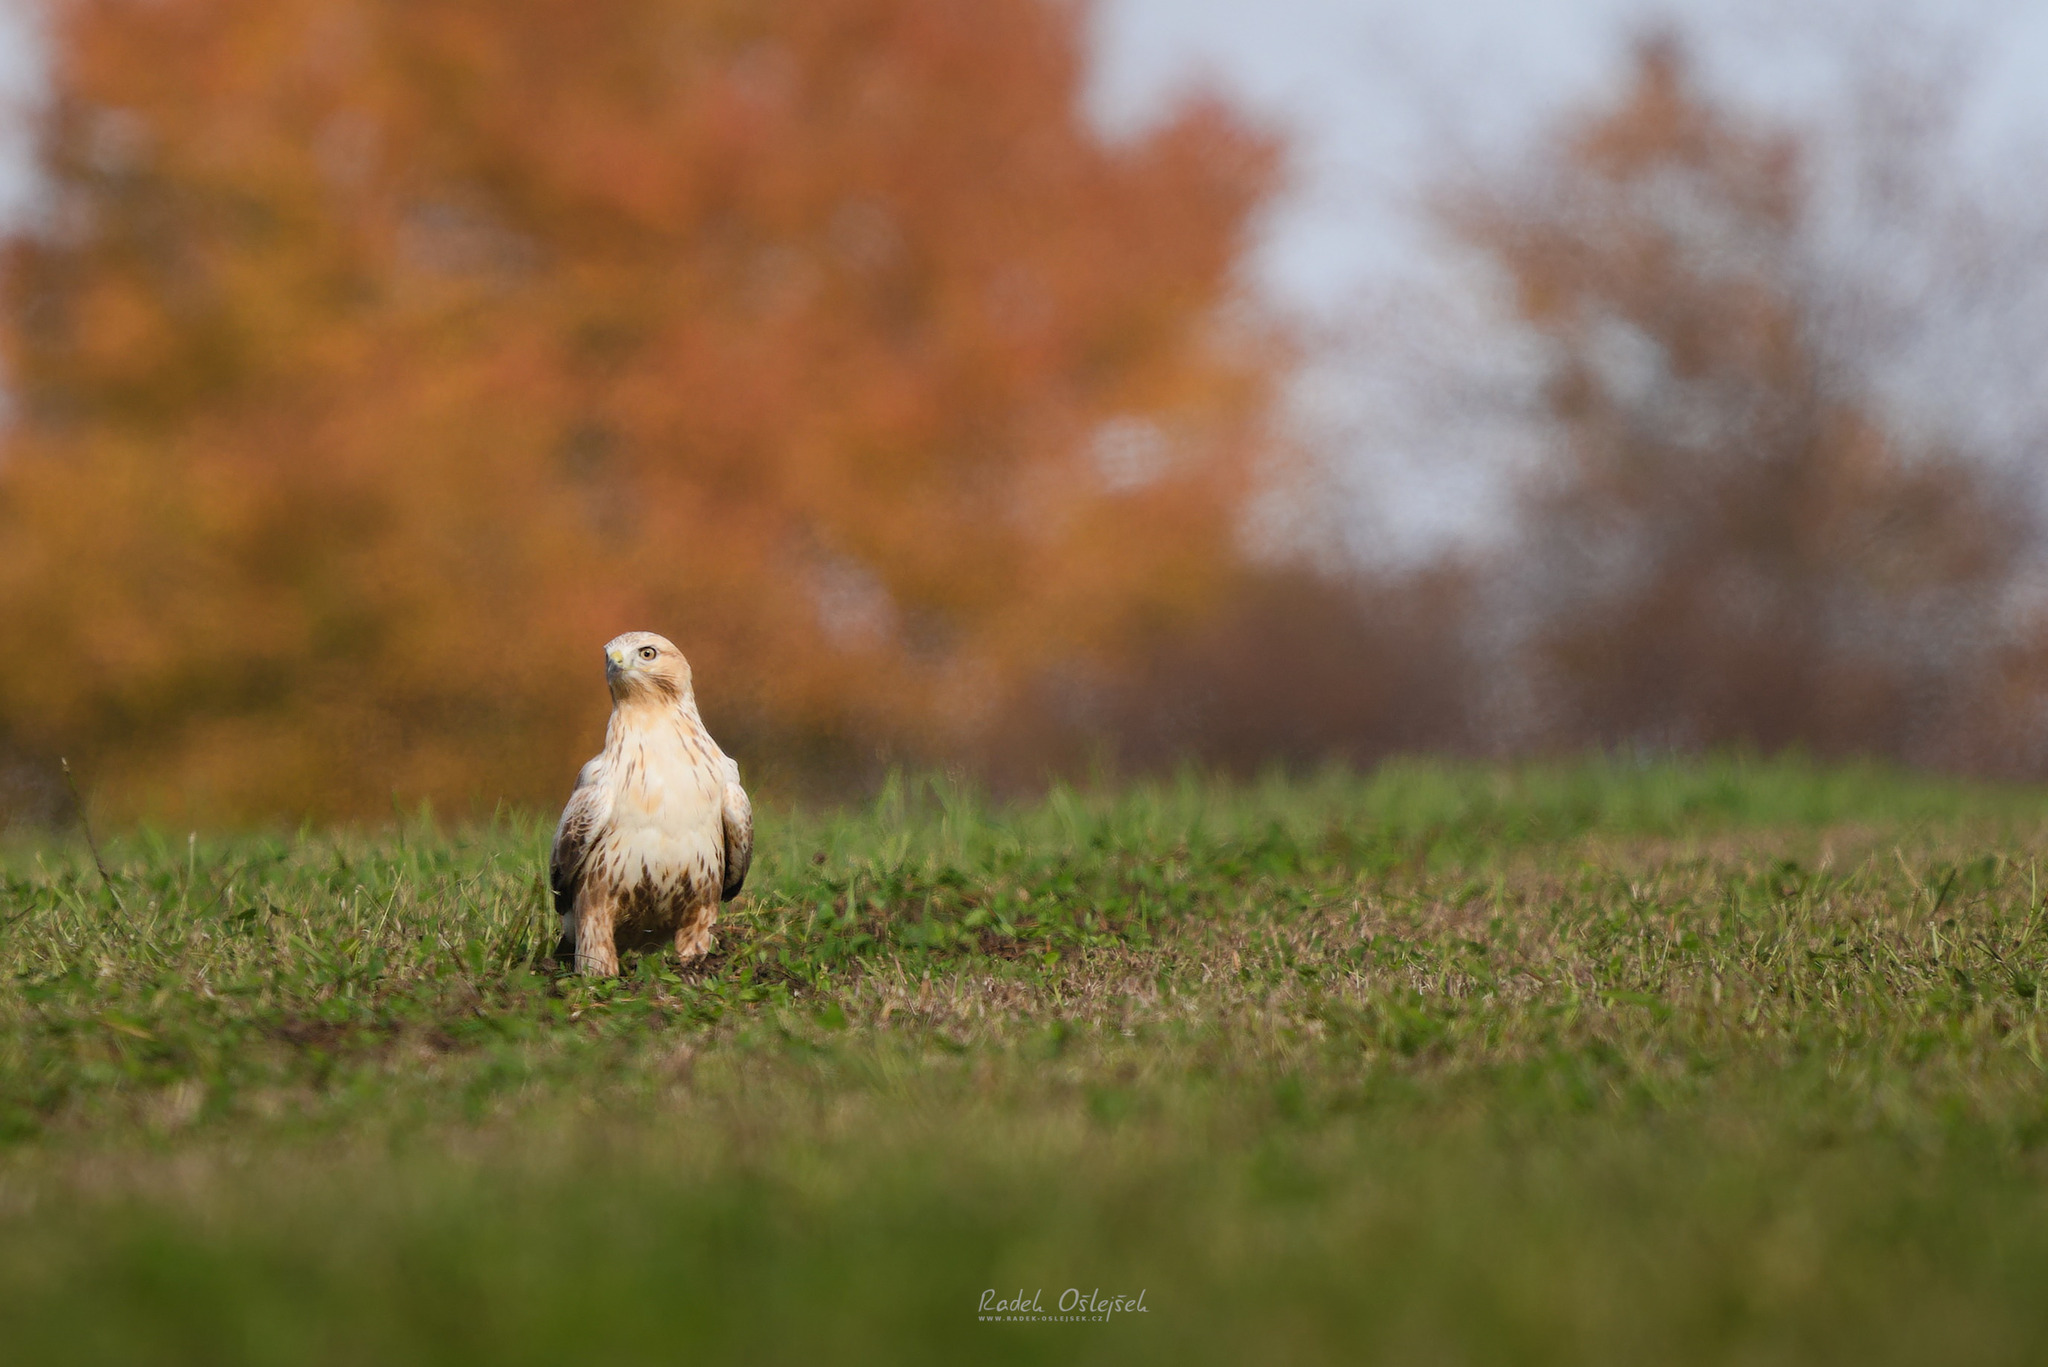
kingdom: Animalia
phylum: Chordata
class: Aves
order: Accipitriformes
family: Accipitridae
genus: Buteo
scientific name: Buteo rufinus
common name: Long-legged buzzard
